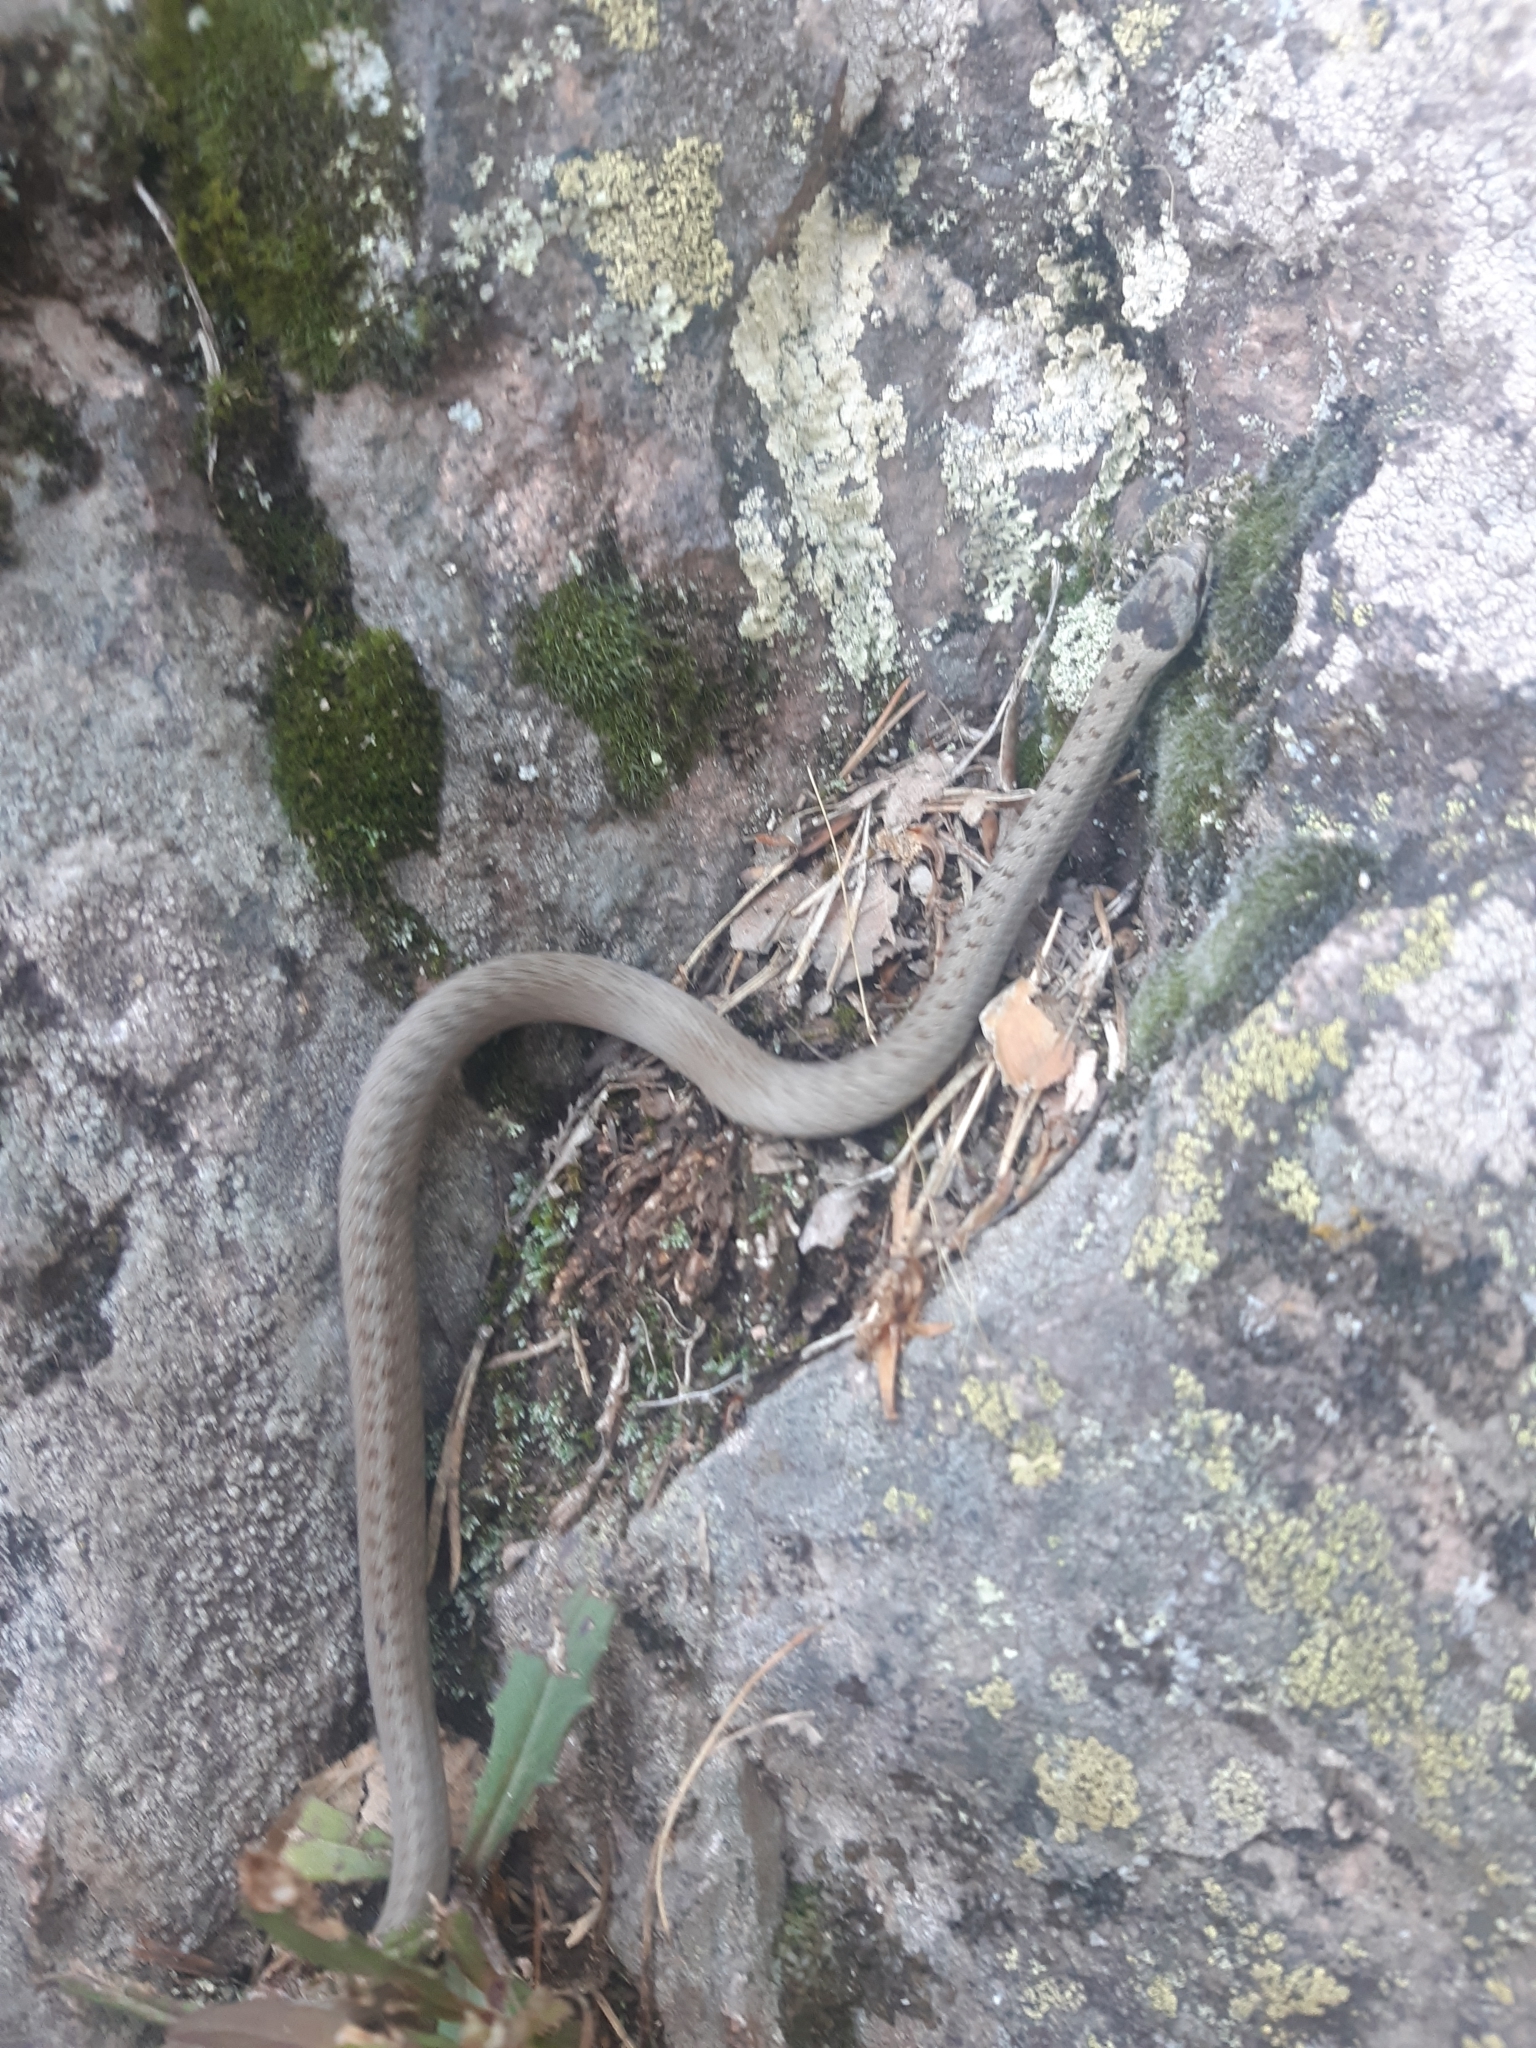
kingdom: Animalia
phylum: Chordata
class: Squamata
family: Colubridae
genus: Coronella
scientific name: Coronella austriaca
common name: Smooth snake
